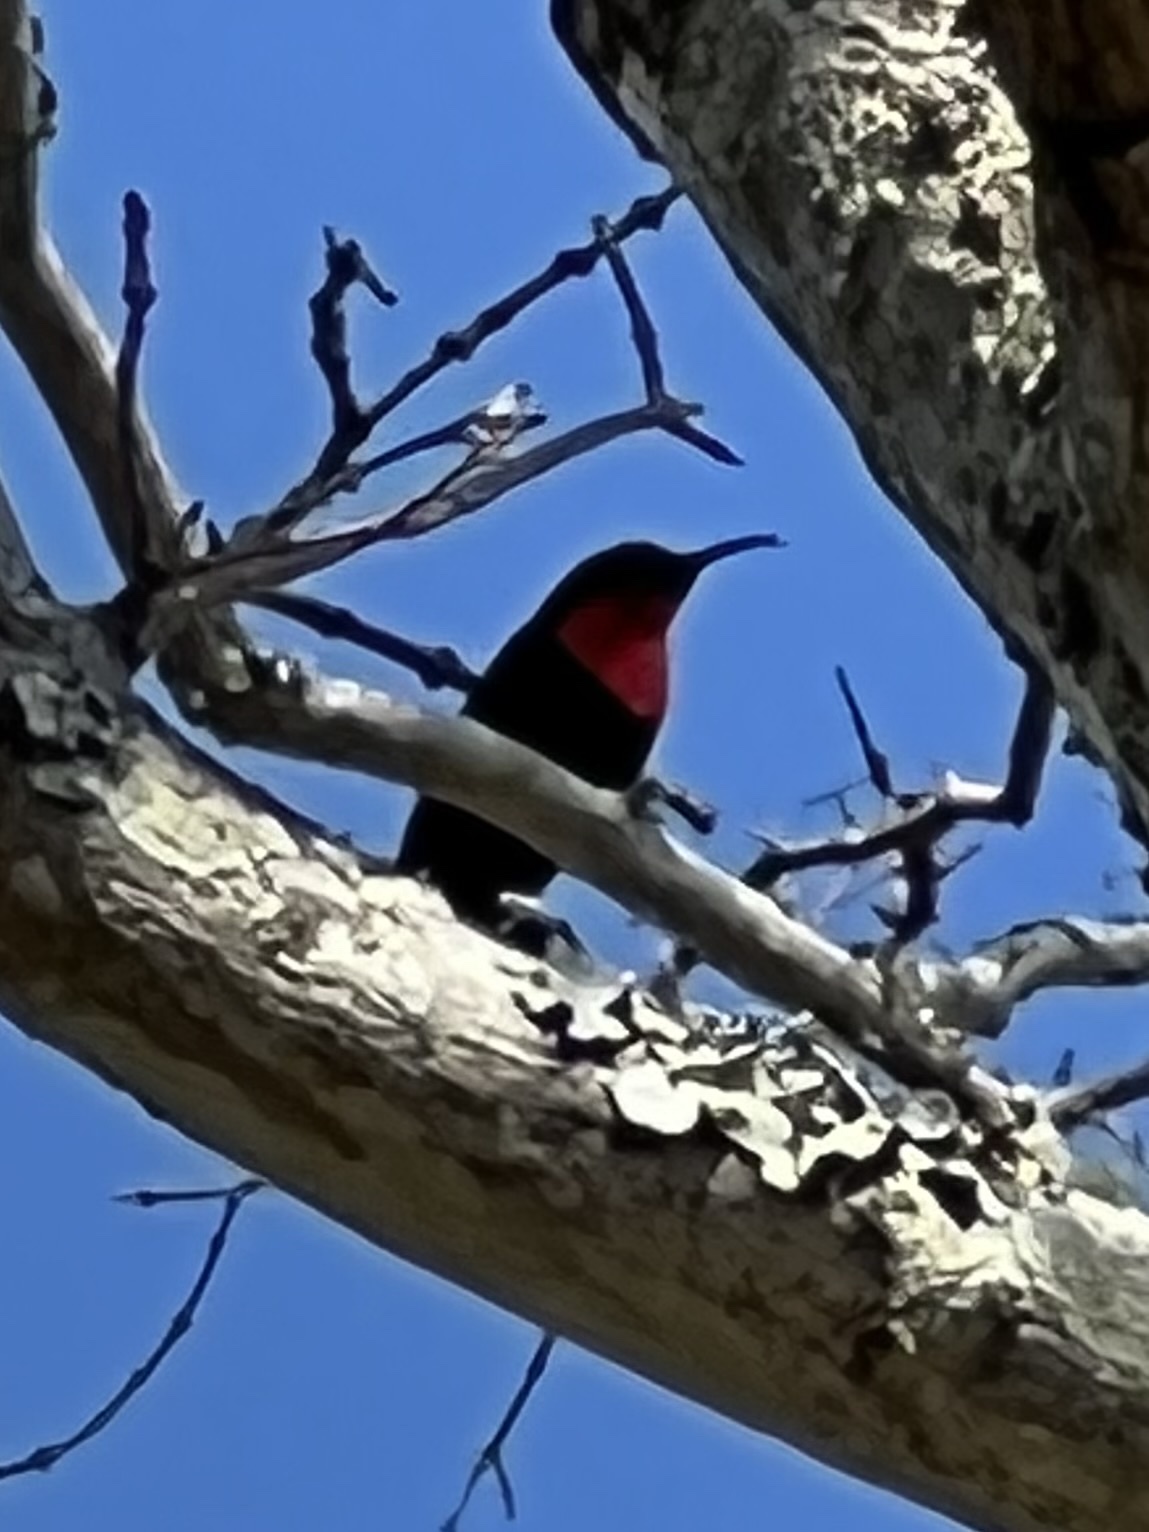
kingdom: Animalia
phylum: Chordata
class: Aves
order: Passeriformes
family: Nectariniidae
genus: Chalcomitra
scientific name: Chalcomitra senegalensis
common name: Scarlet-chested sunbird
